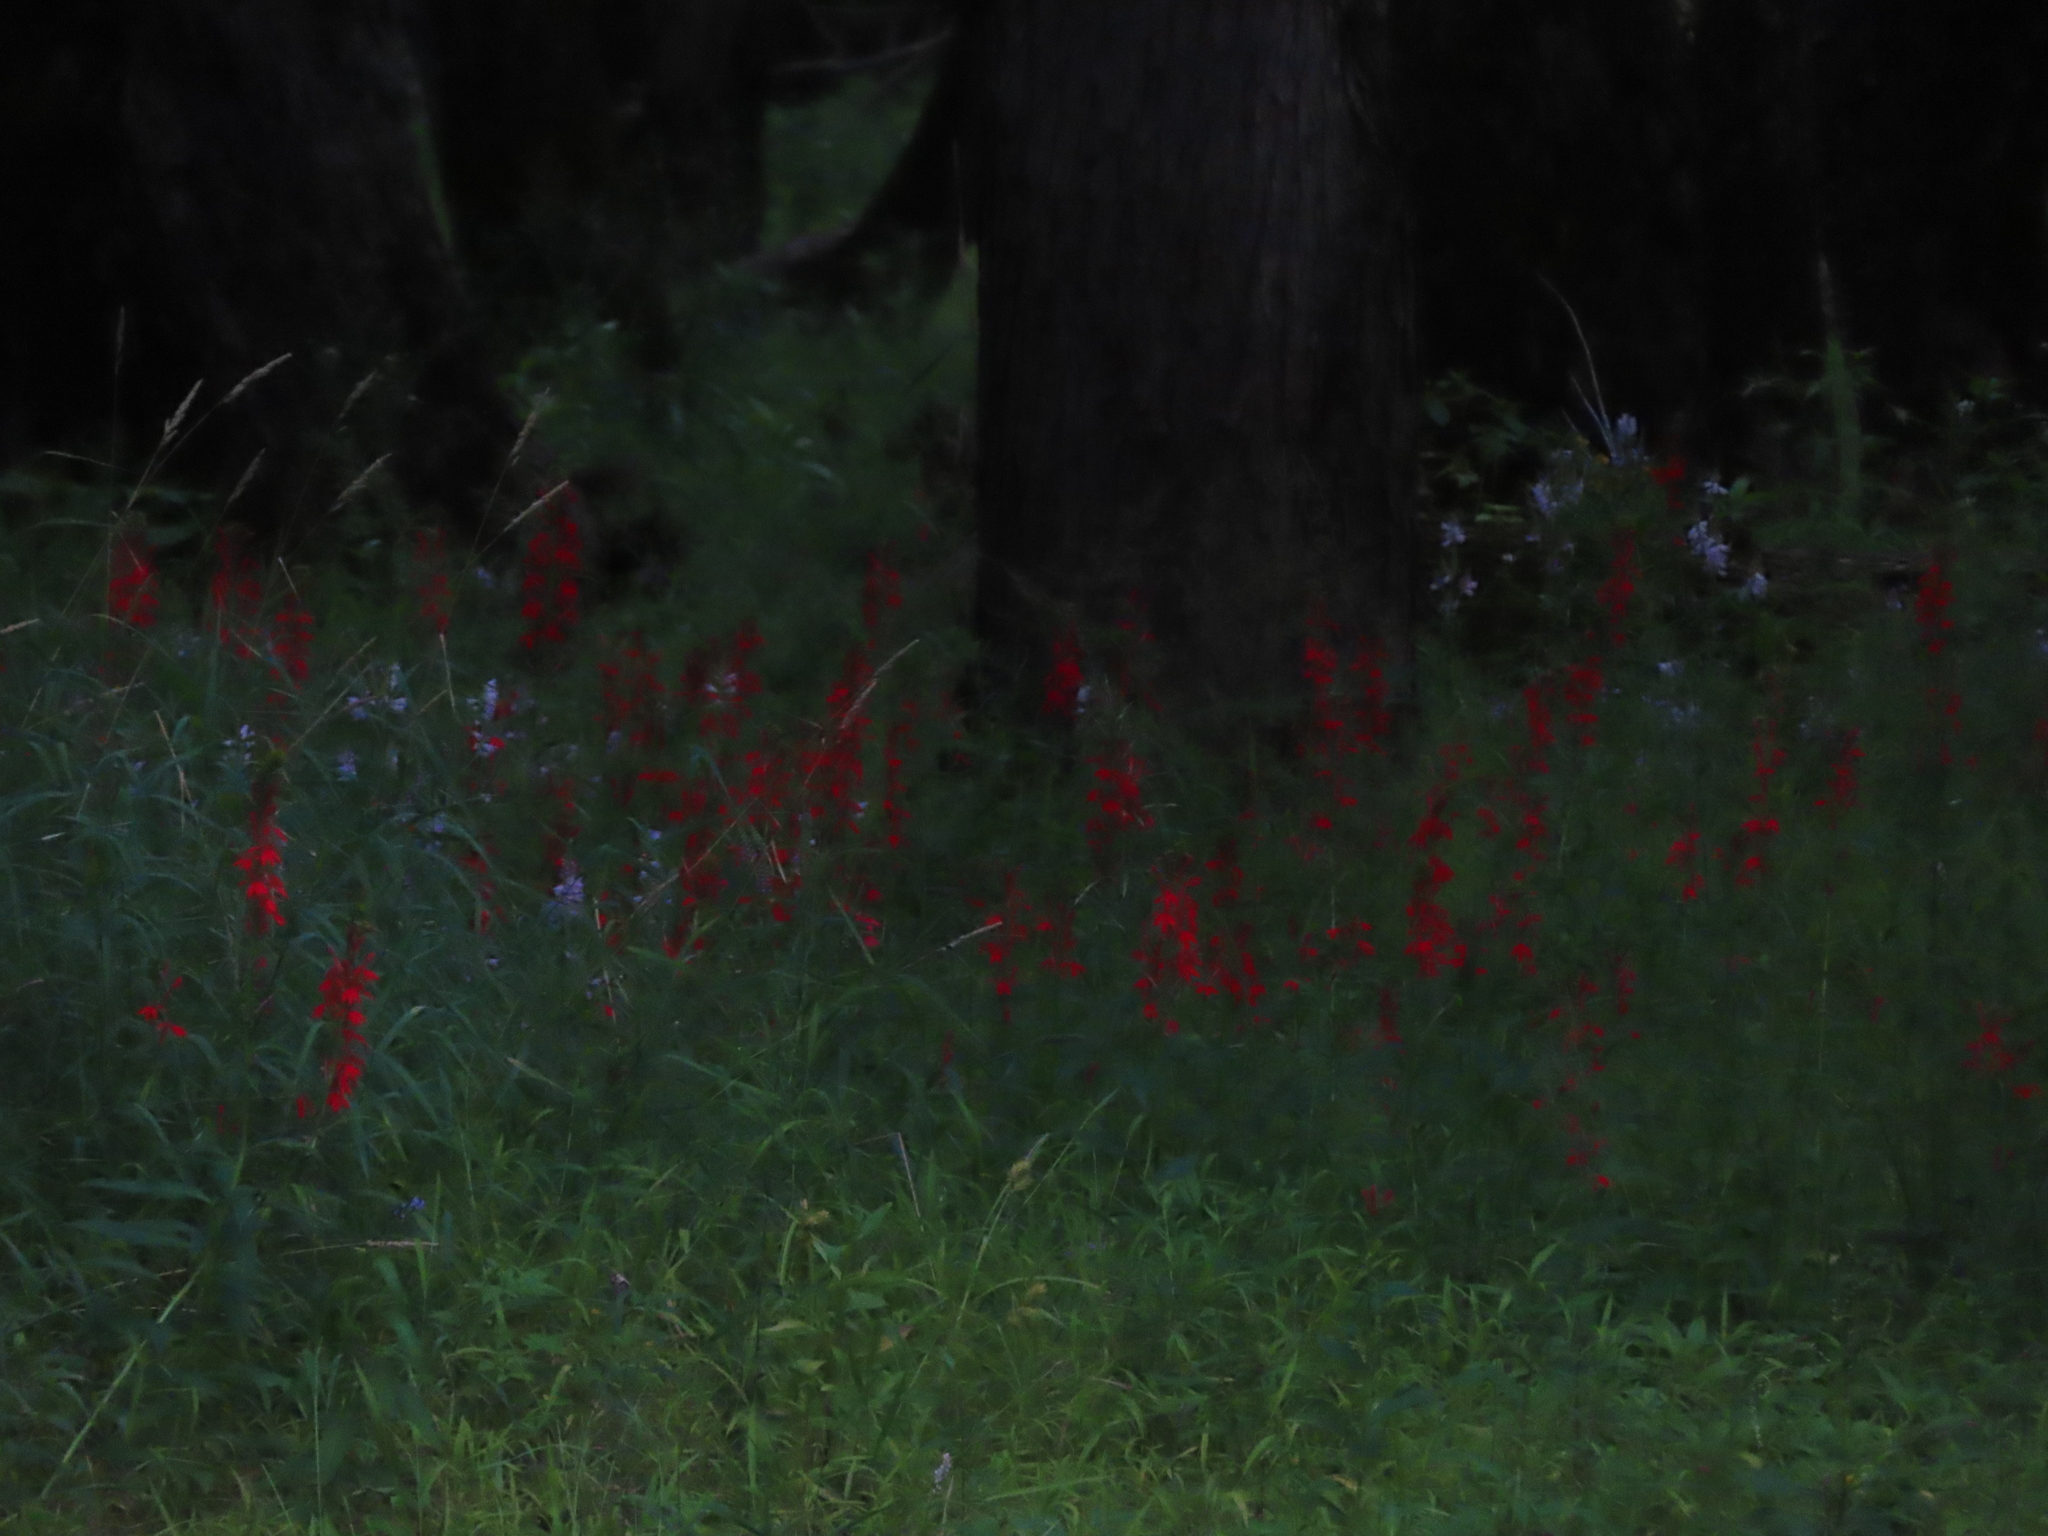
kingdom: Plantae
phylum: Tracheophyta
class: Magnoliopsida
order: Asterales
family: Campanulaceae
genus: Lobelia
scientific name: Lobelia cardinalis
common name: Cardinal flower
